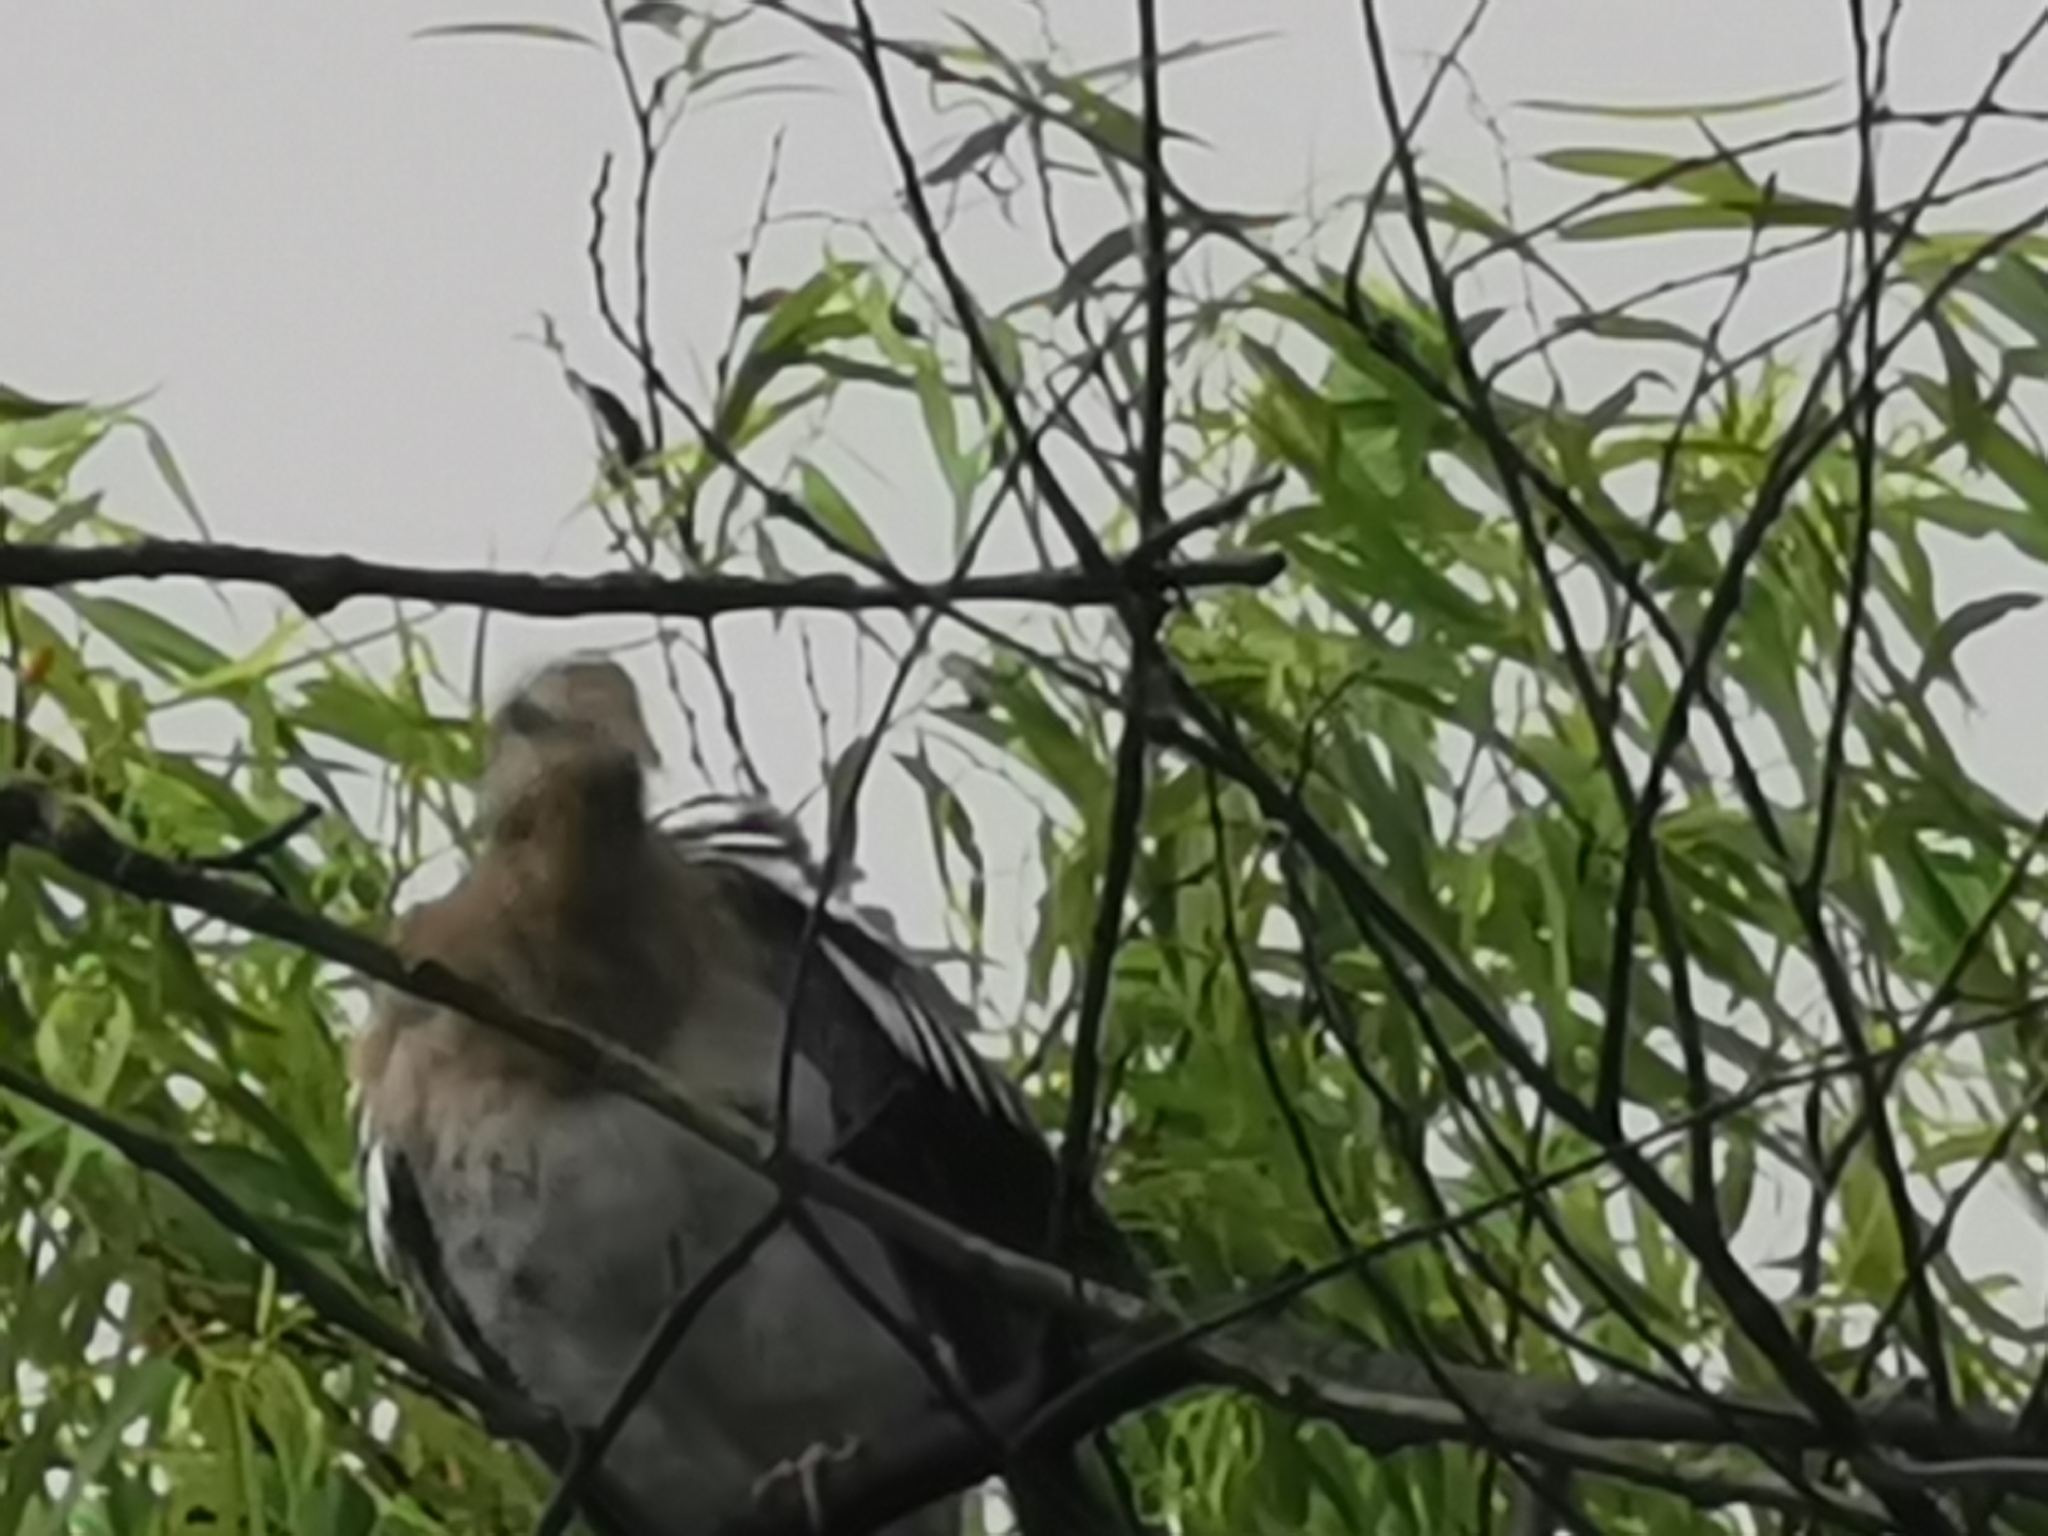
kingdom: Animalia
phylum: Chordata
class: Aves
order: Columbiformes
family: Columbidae
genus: Zenaida
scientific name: Zenaida asiatica
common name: White-winged dove
